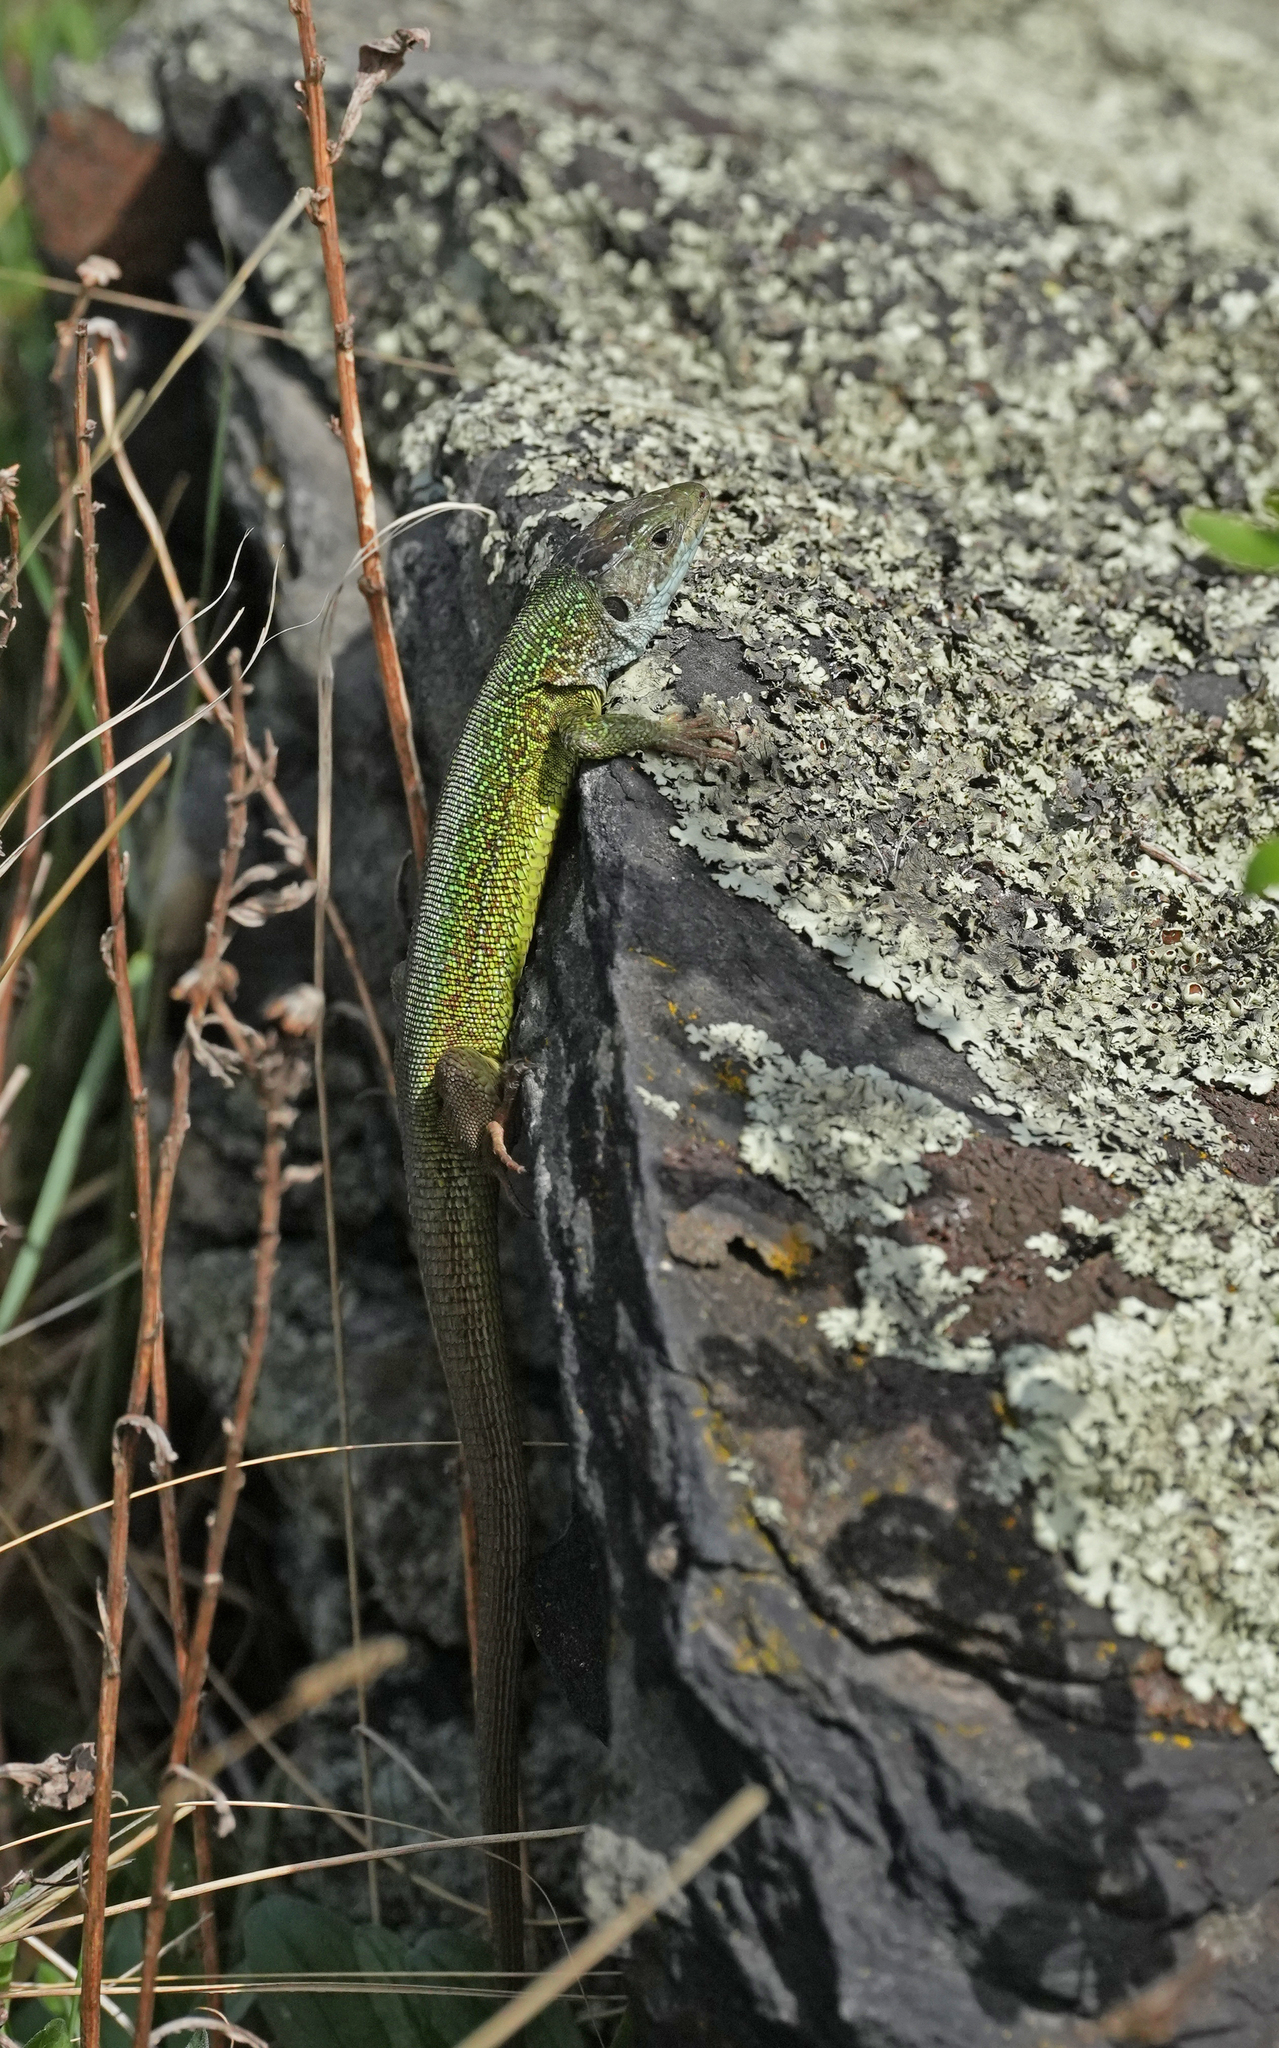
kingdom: Animalia
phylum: Chordata
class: Squamata
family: Lacertidae
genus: Lacerta
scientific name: Lacerta viridis
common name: European green lizard
